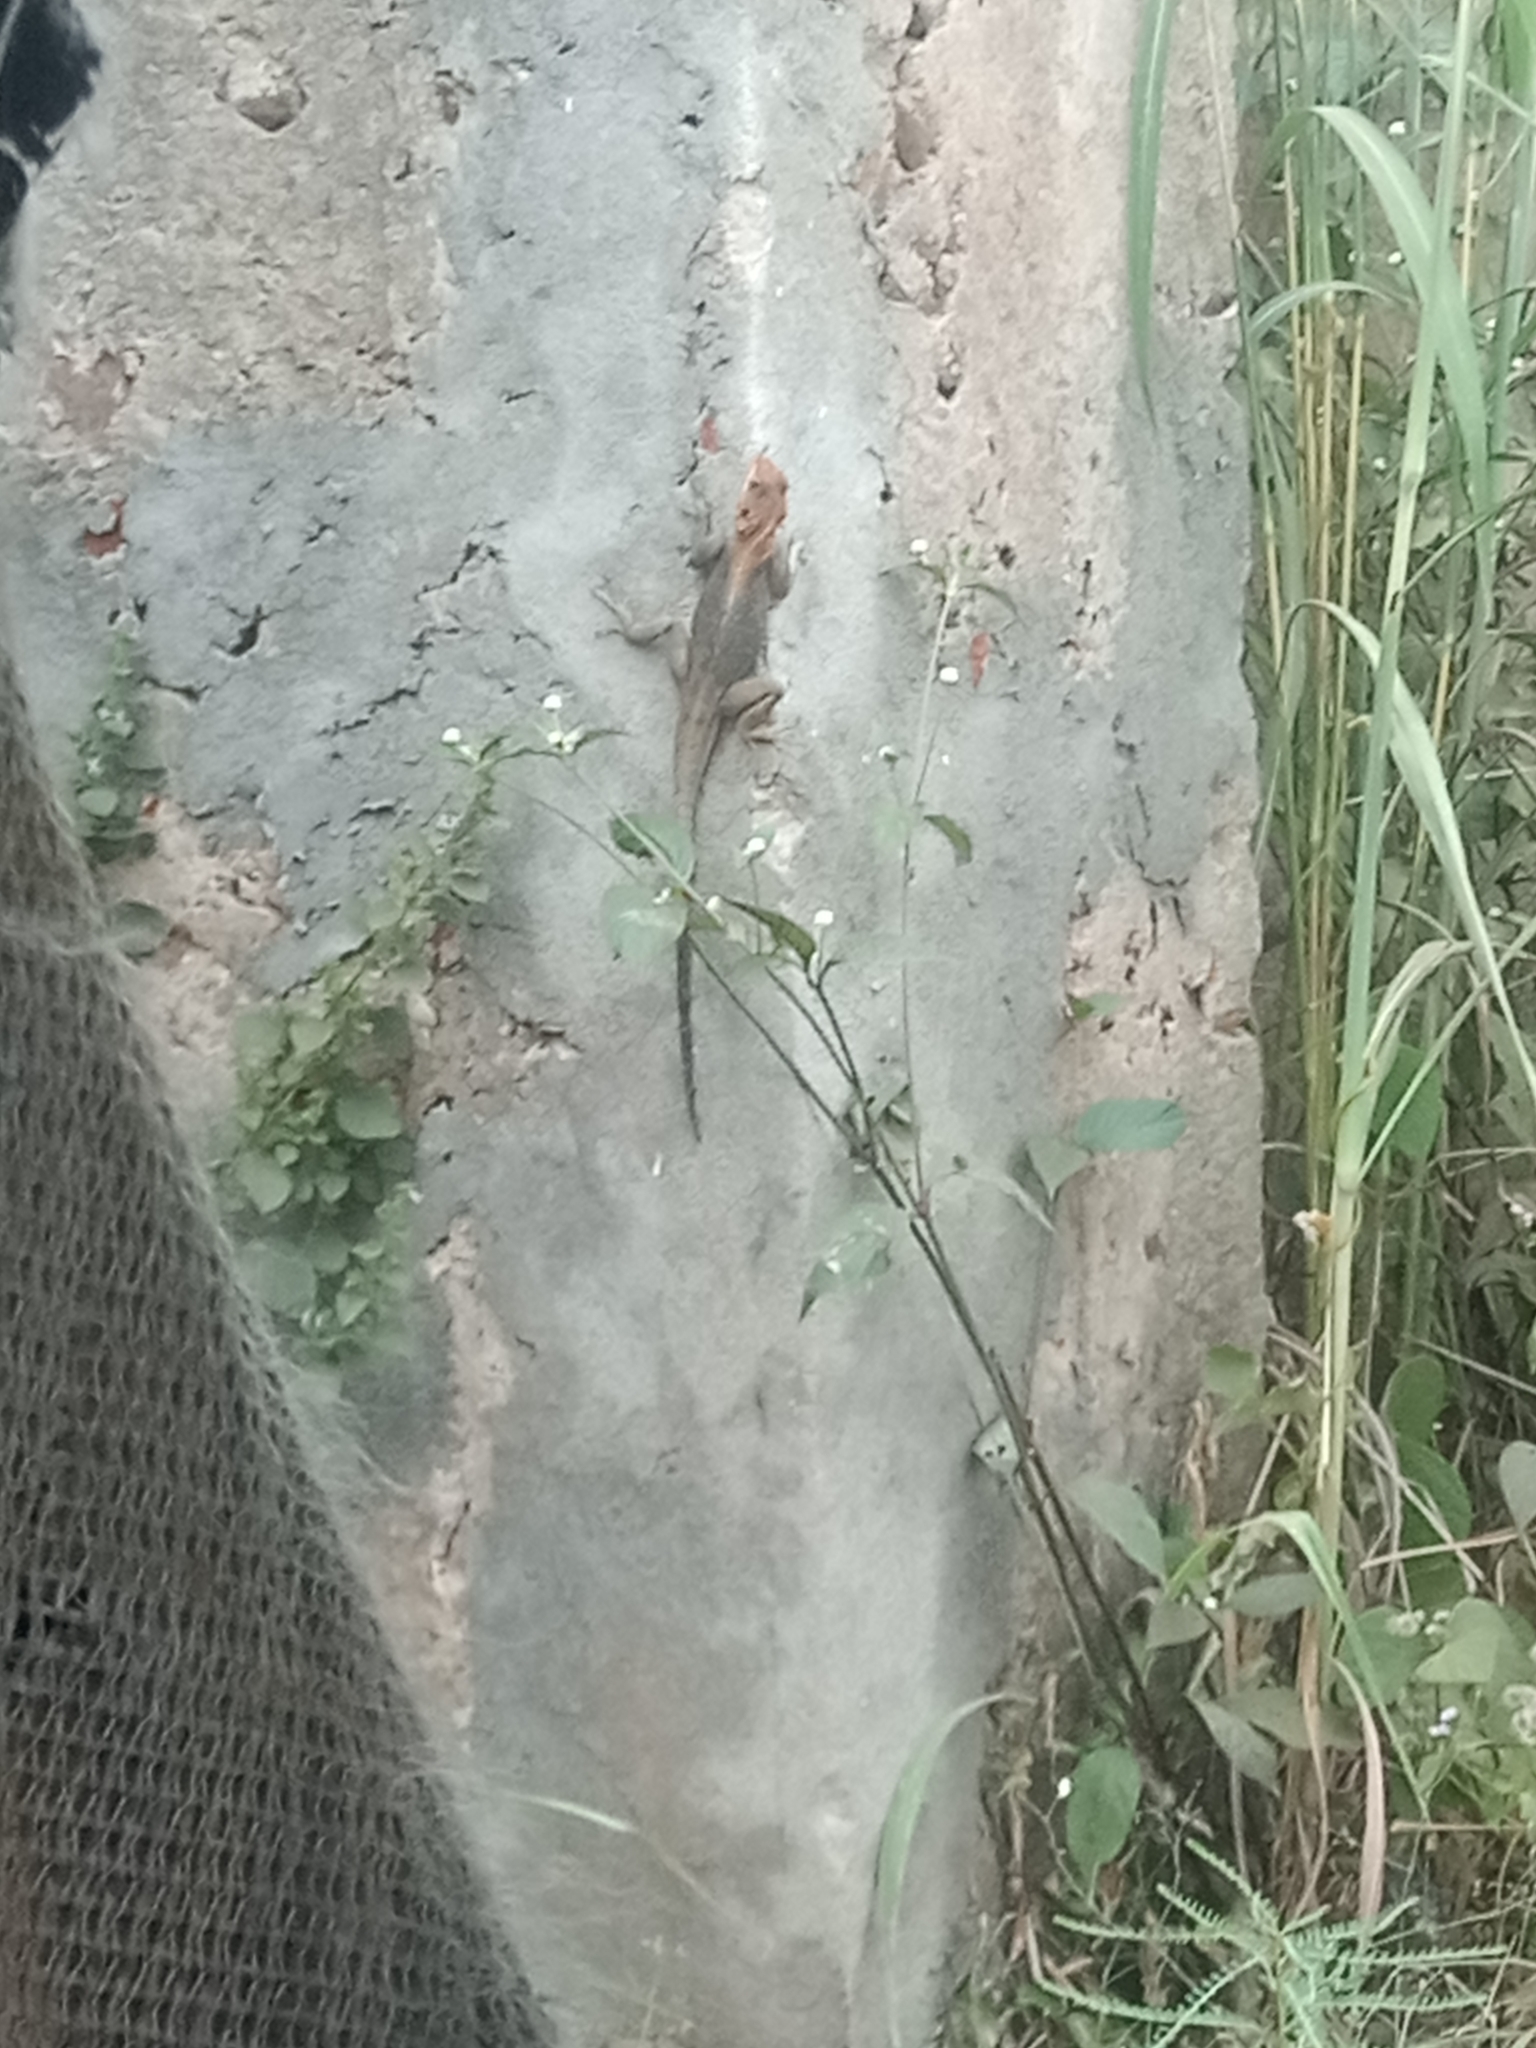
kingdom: Animalia
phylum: Chordata
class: Squamata
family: Agamidae
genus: Agama
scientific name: Agama agama
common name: Common agama
